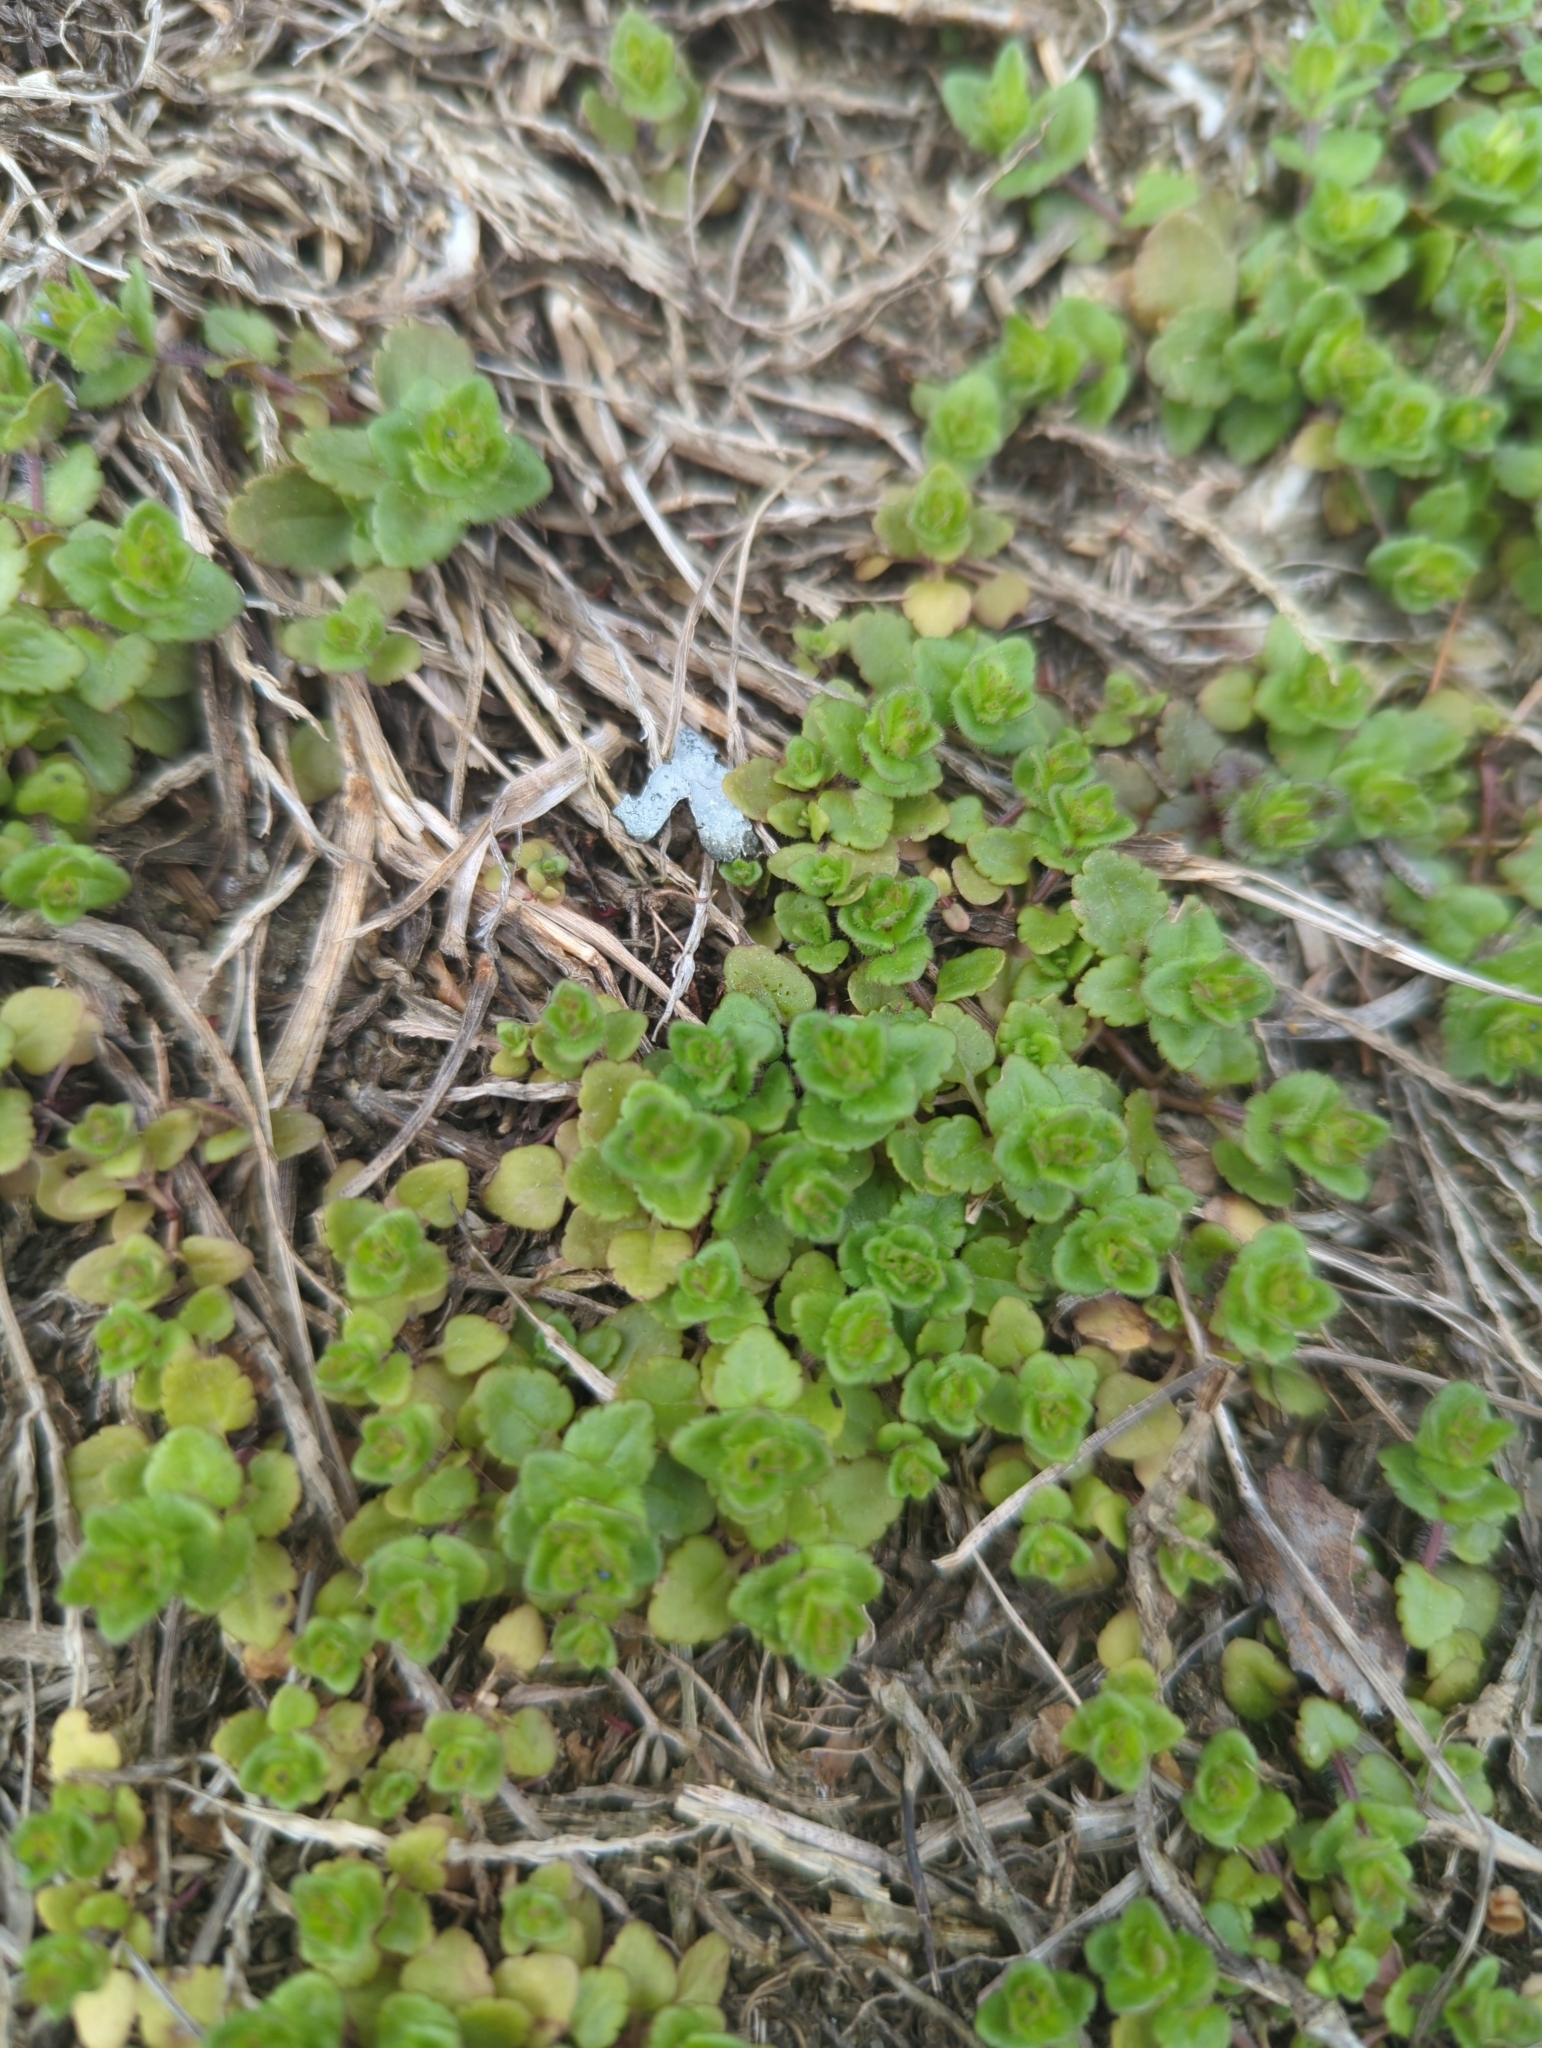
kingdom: Plantae
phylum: Tracheophyta
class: Magnoliopsida
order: Lamiales
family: Plantaginaceae
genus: Veronica
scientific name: Veronica arvensis
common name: Corn speedwell
